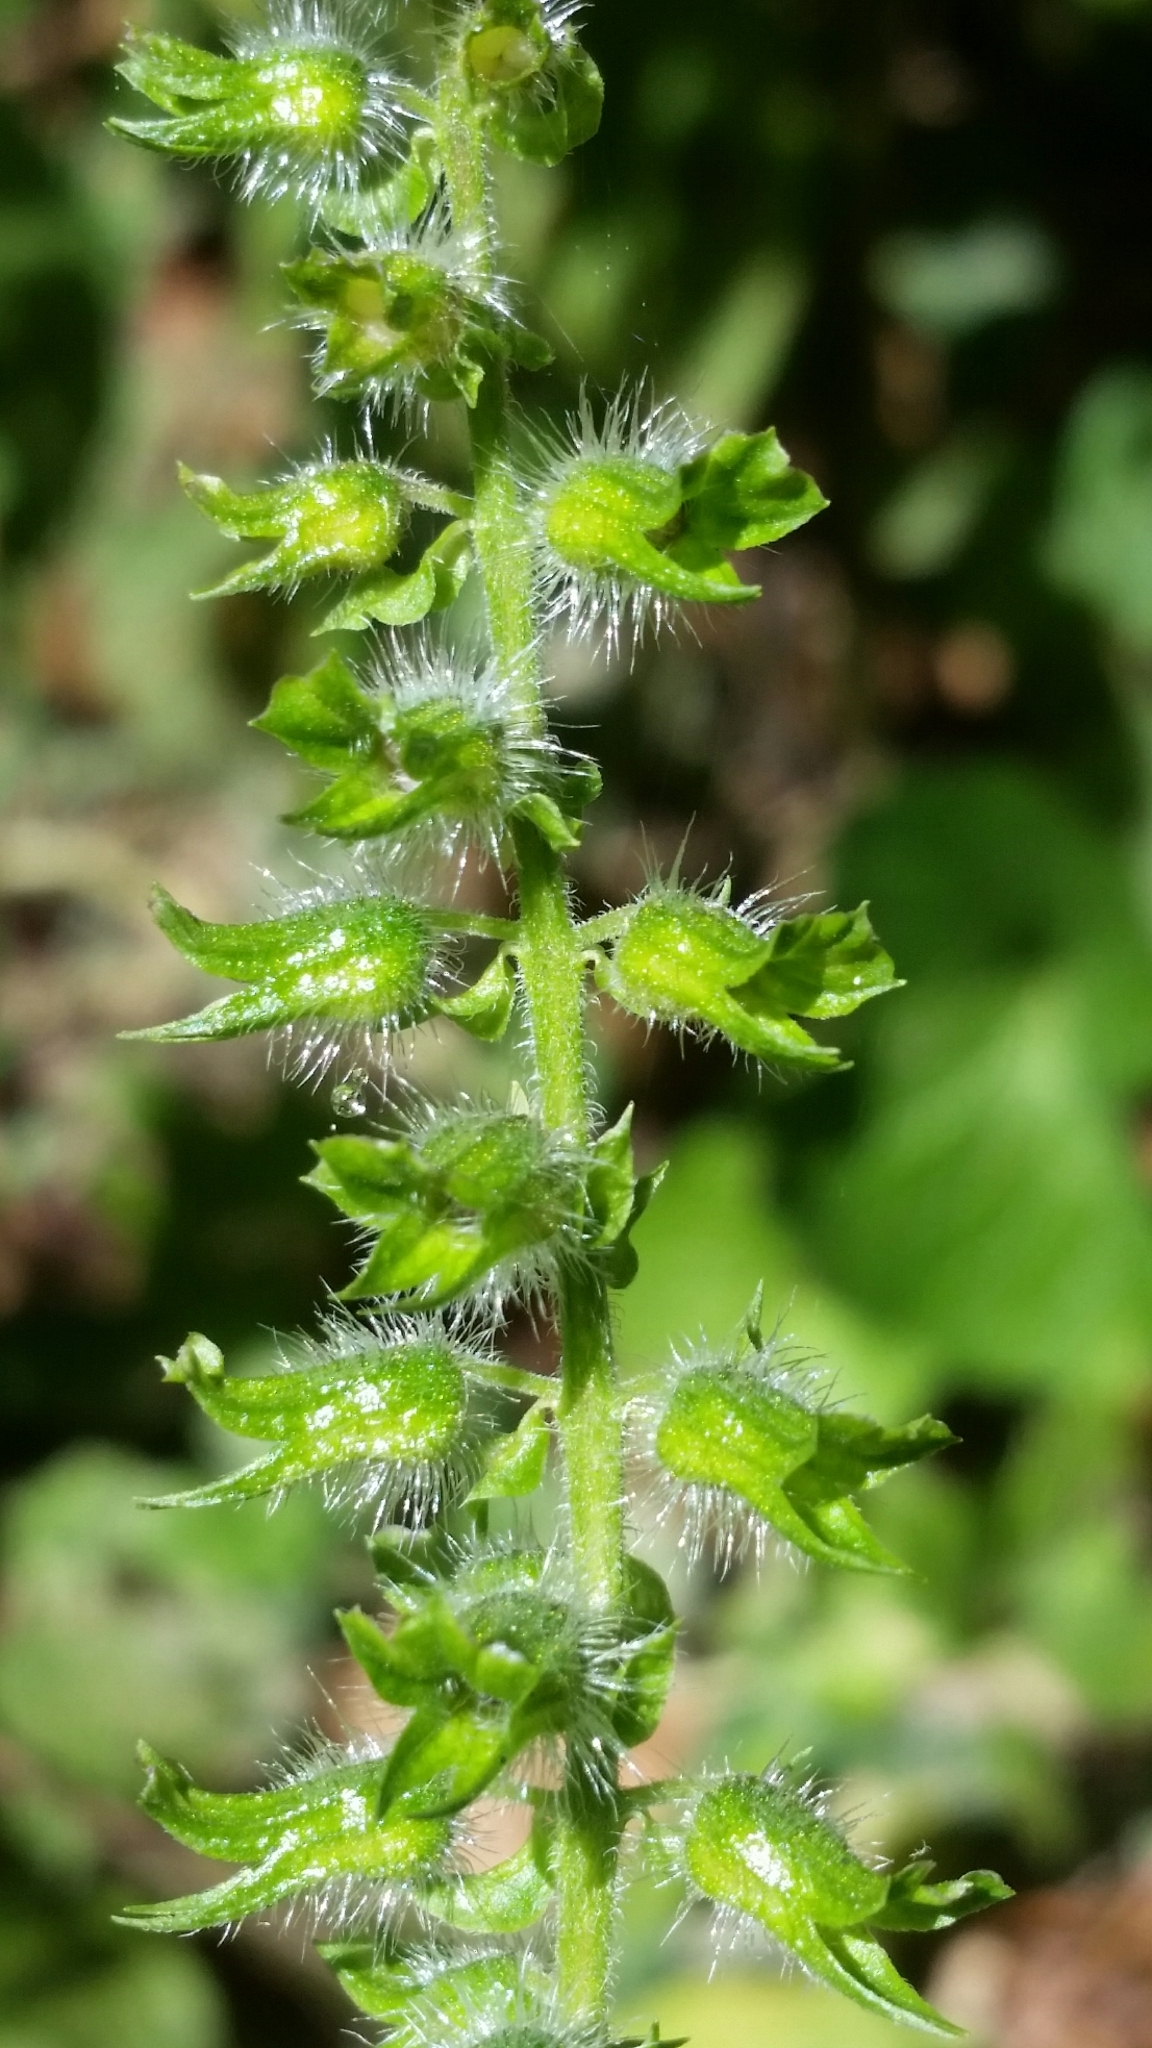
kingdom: Plantae
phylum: Tracheophyta
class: Magnoliopsida
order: Lamiales
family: Lamiaceae
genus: Perilla
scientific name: Perilla frutescens
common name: Perilla
